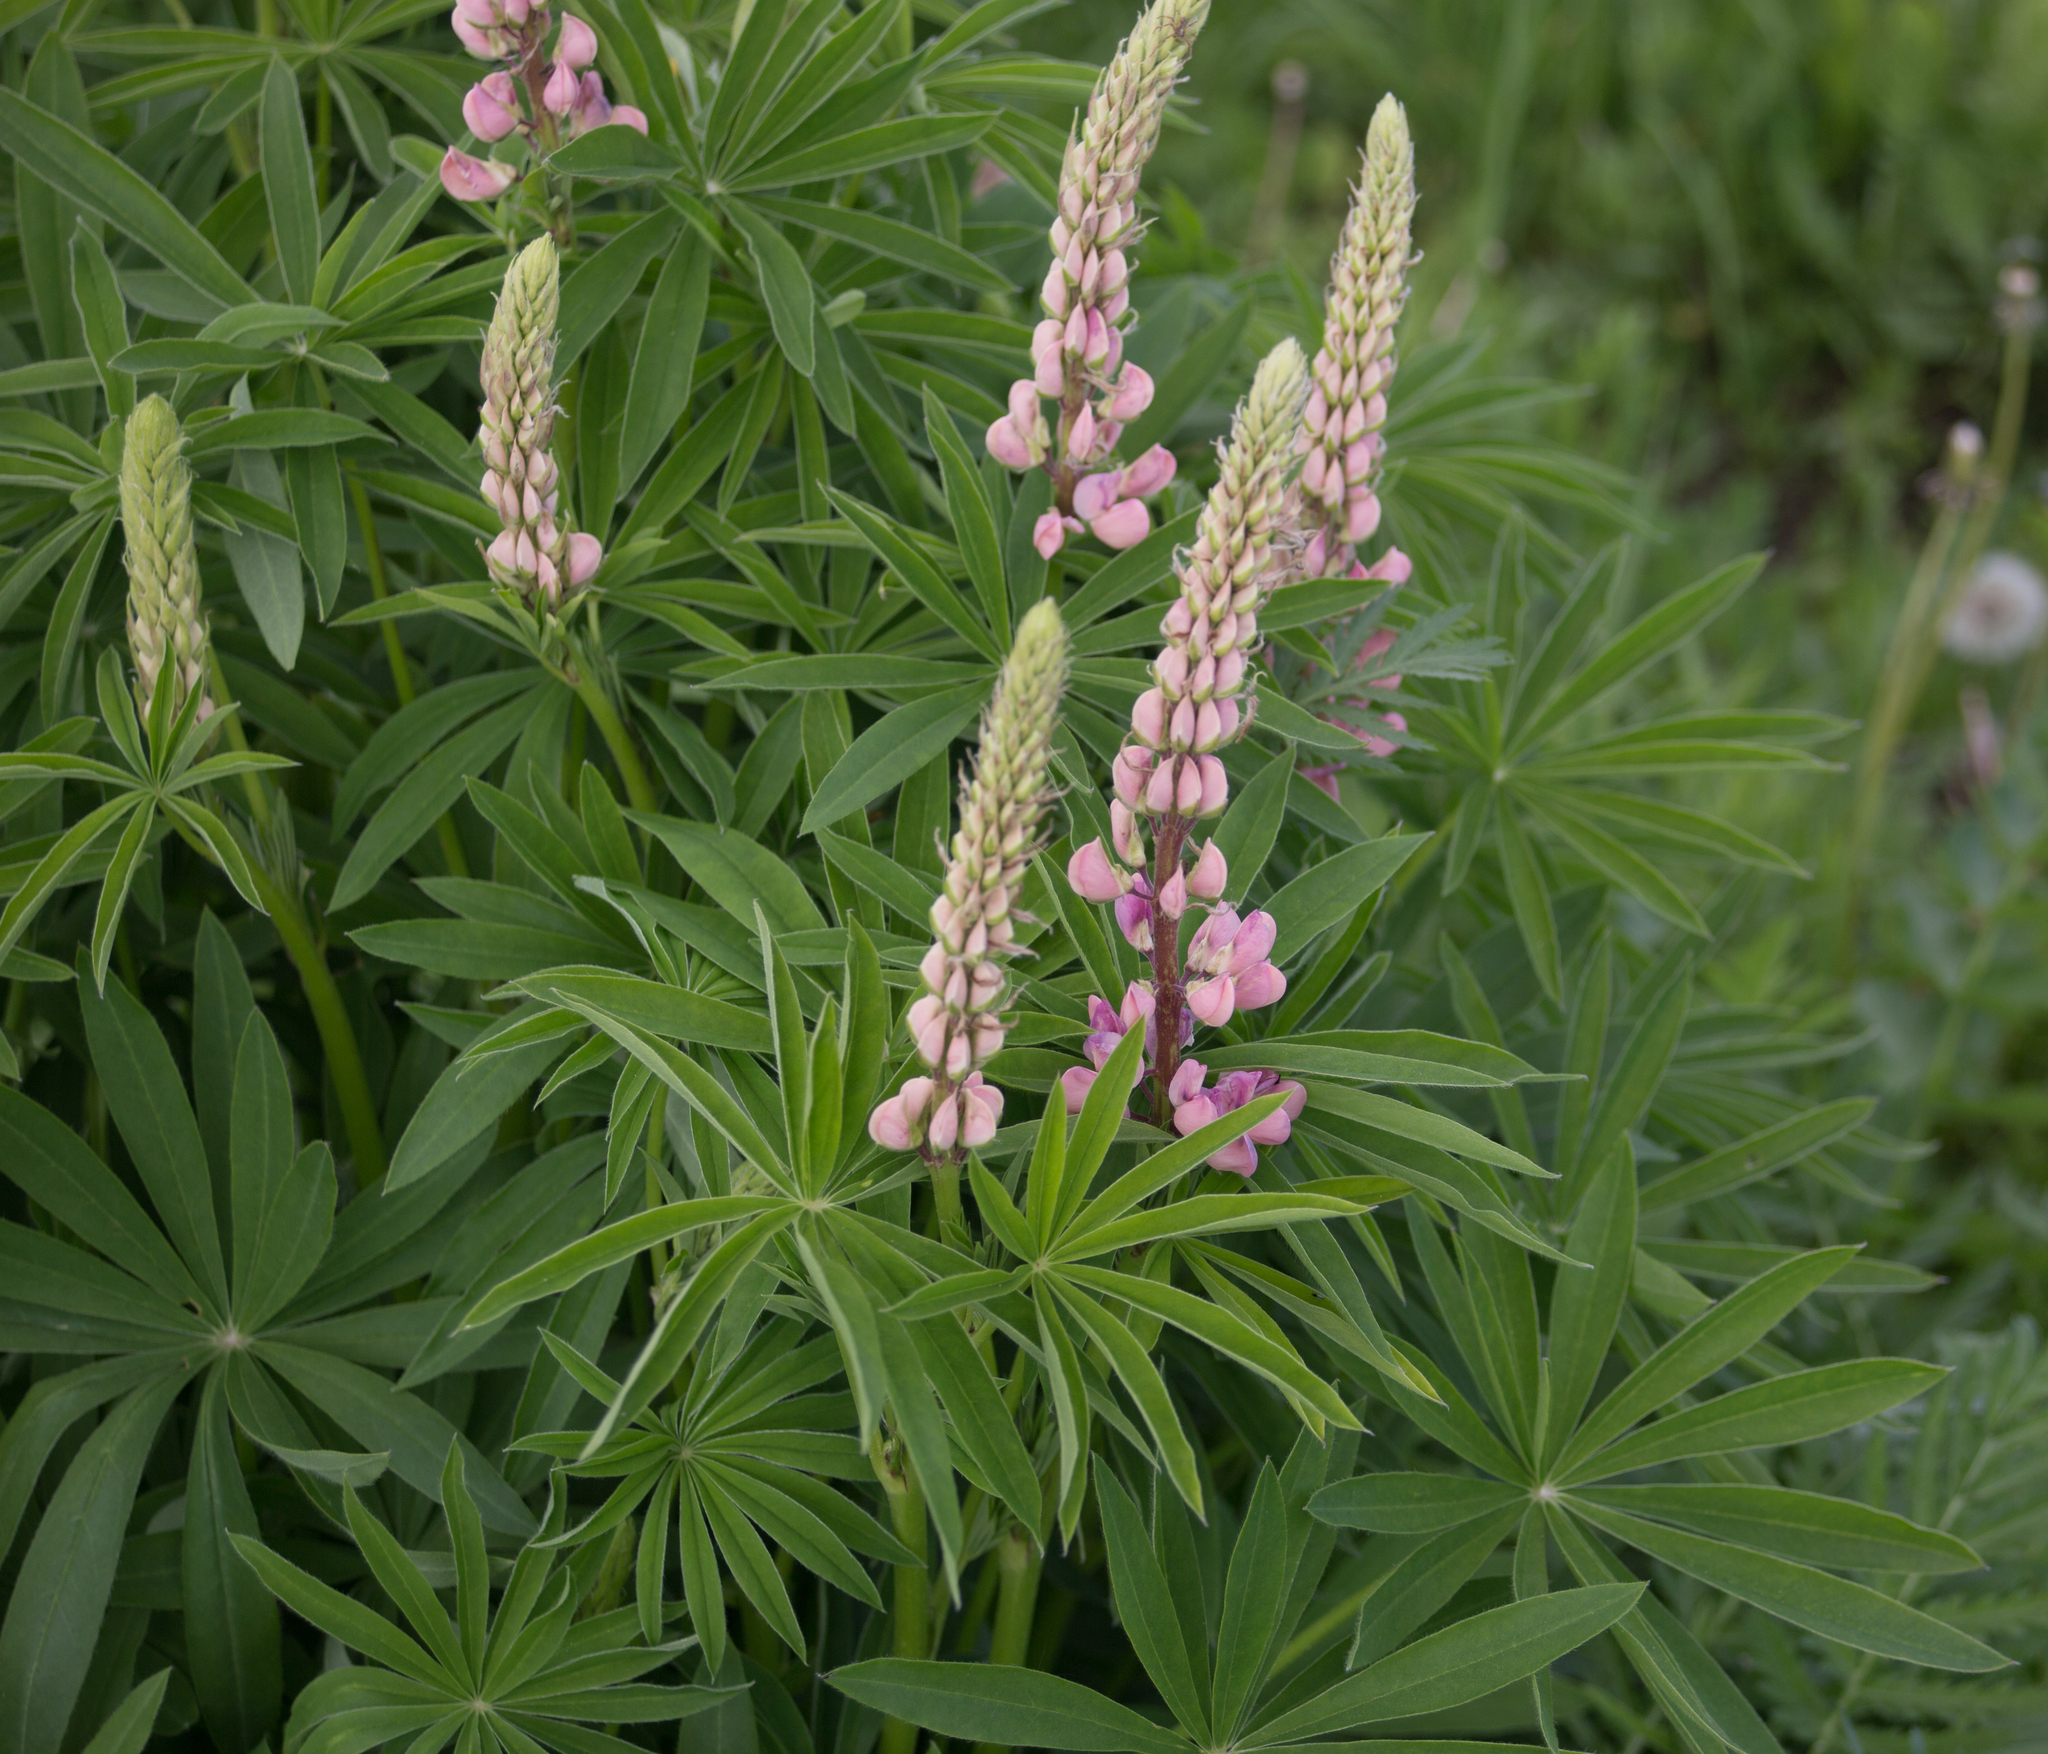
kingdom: Plantae
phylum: Tracheophyta
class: Magnoliopsida
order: Fabales
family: Fabaceae
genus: Lupinus
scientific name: Lupinus polyphyllus
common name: Garden lupin
